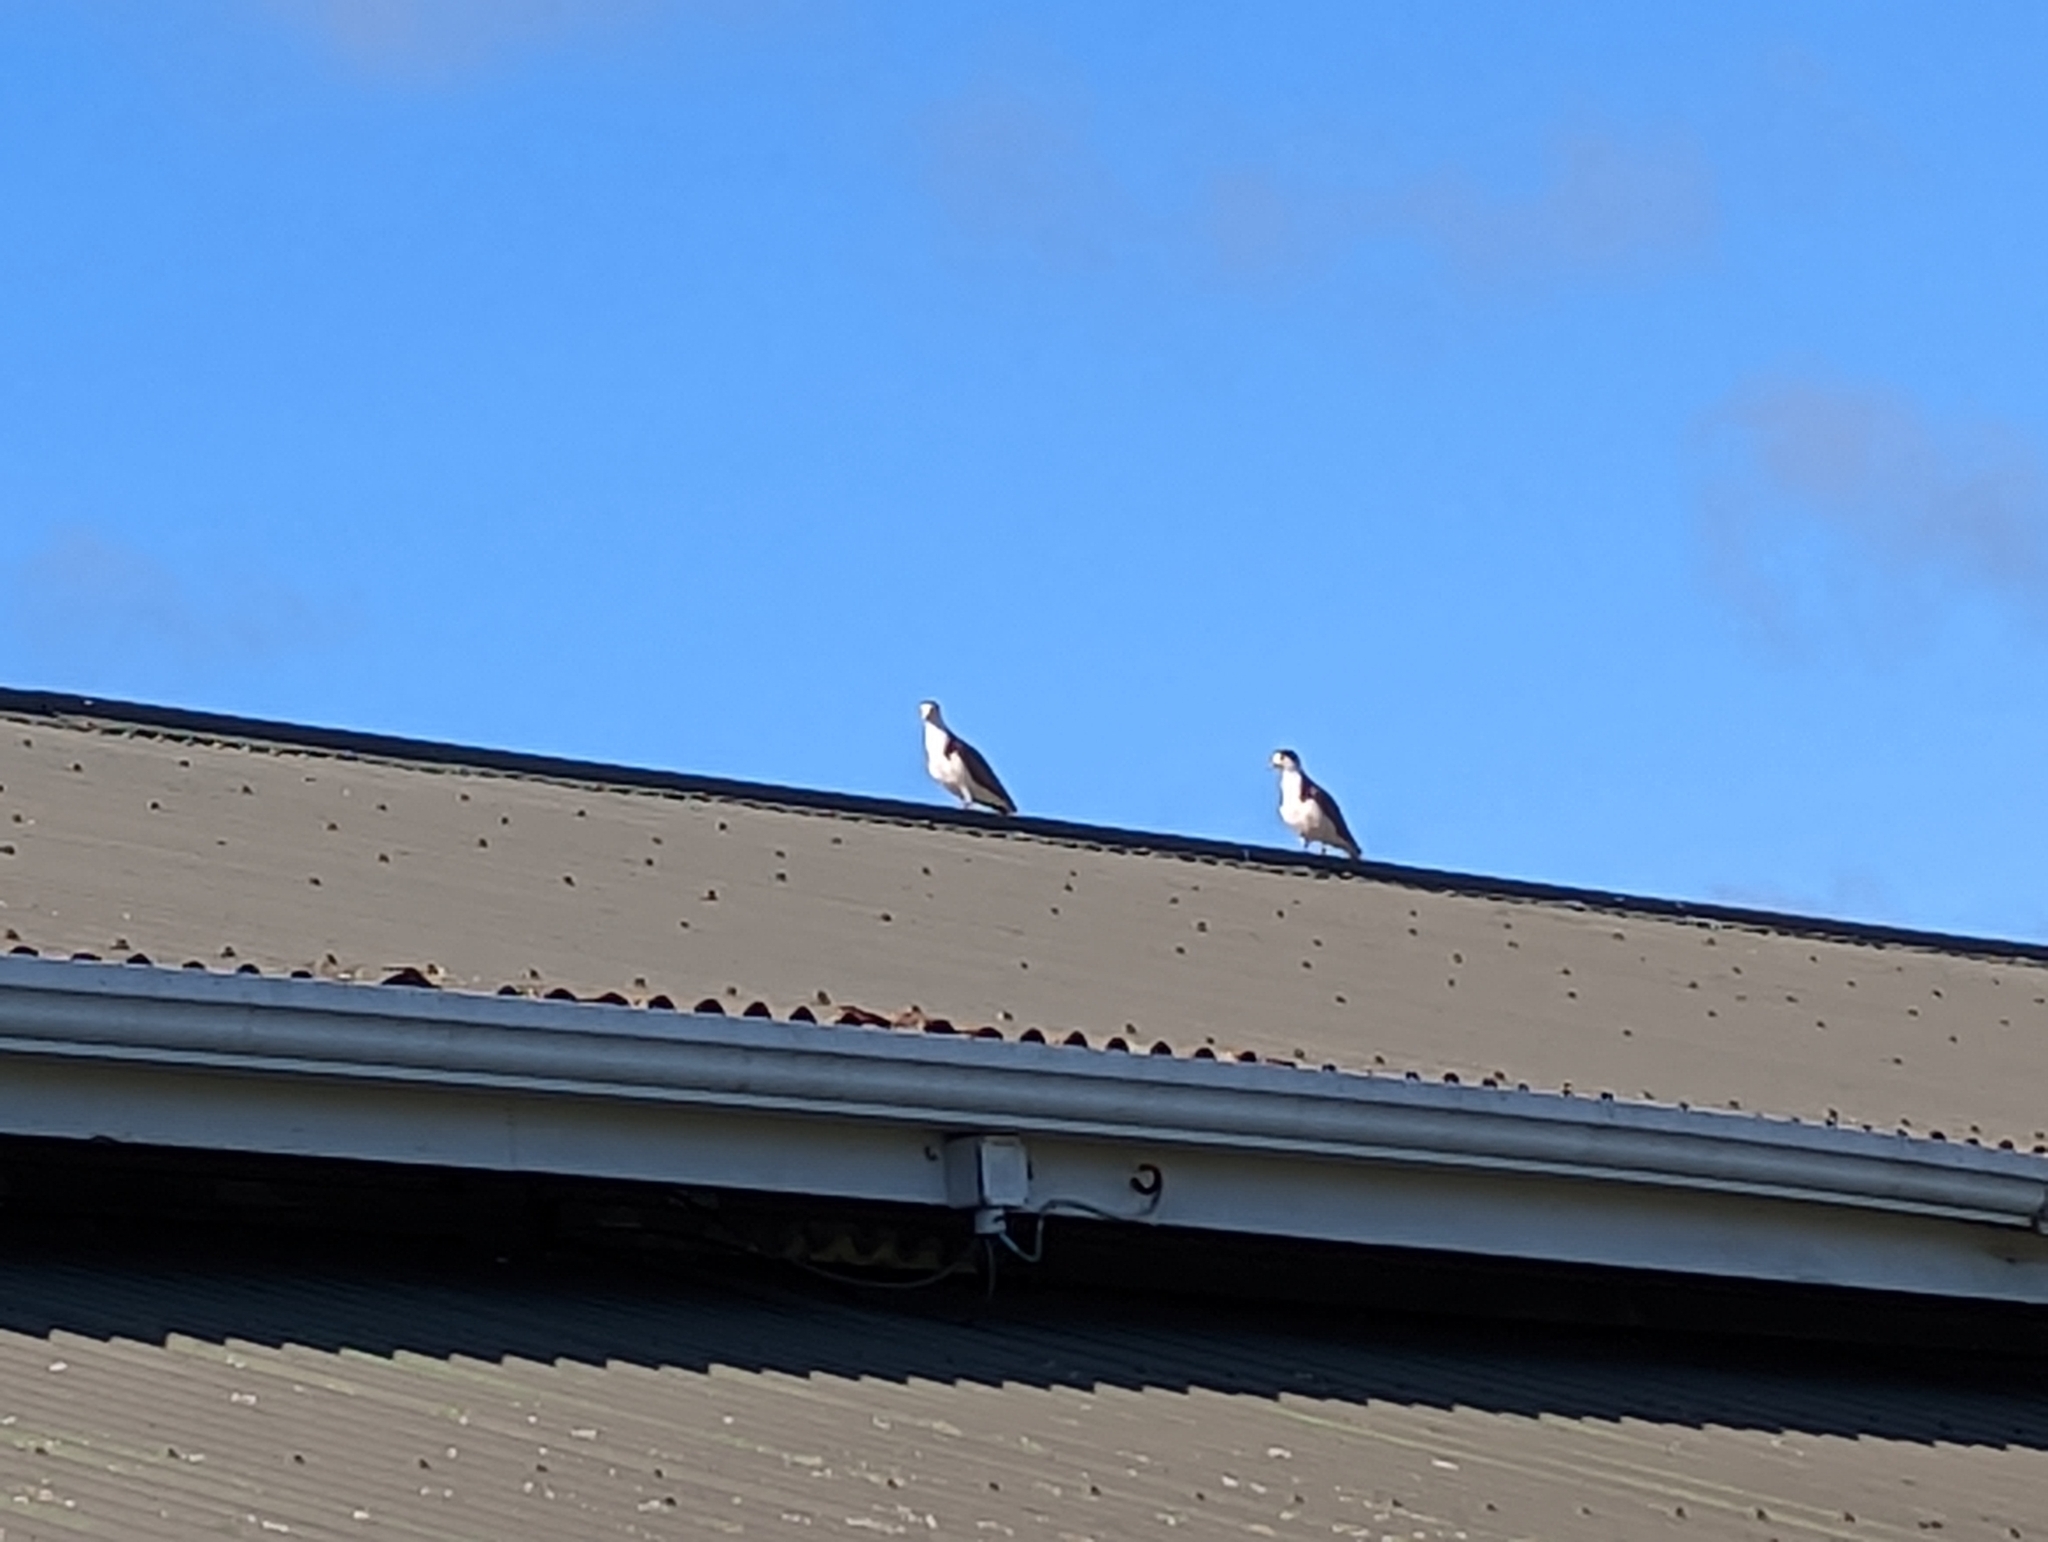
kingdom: Animalia
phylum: Chordata
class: Aves
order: Charadriiformes
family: Charadriidae
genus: Vanellus
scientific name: Vanellus miles
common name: Masked lapwing
